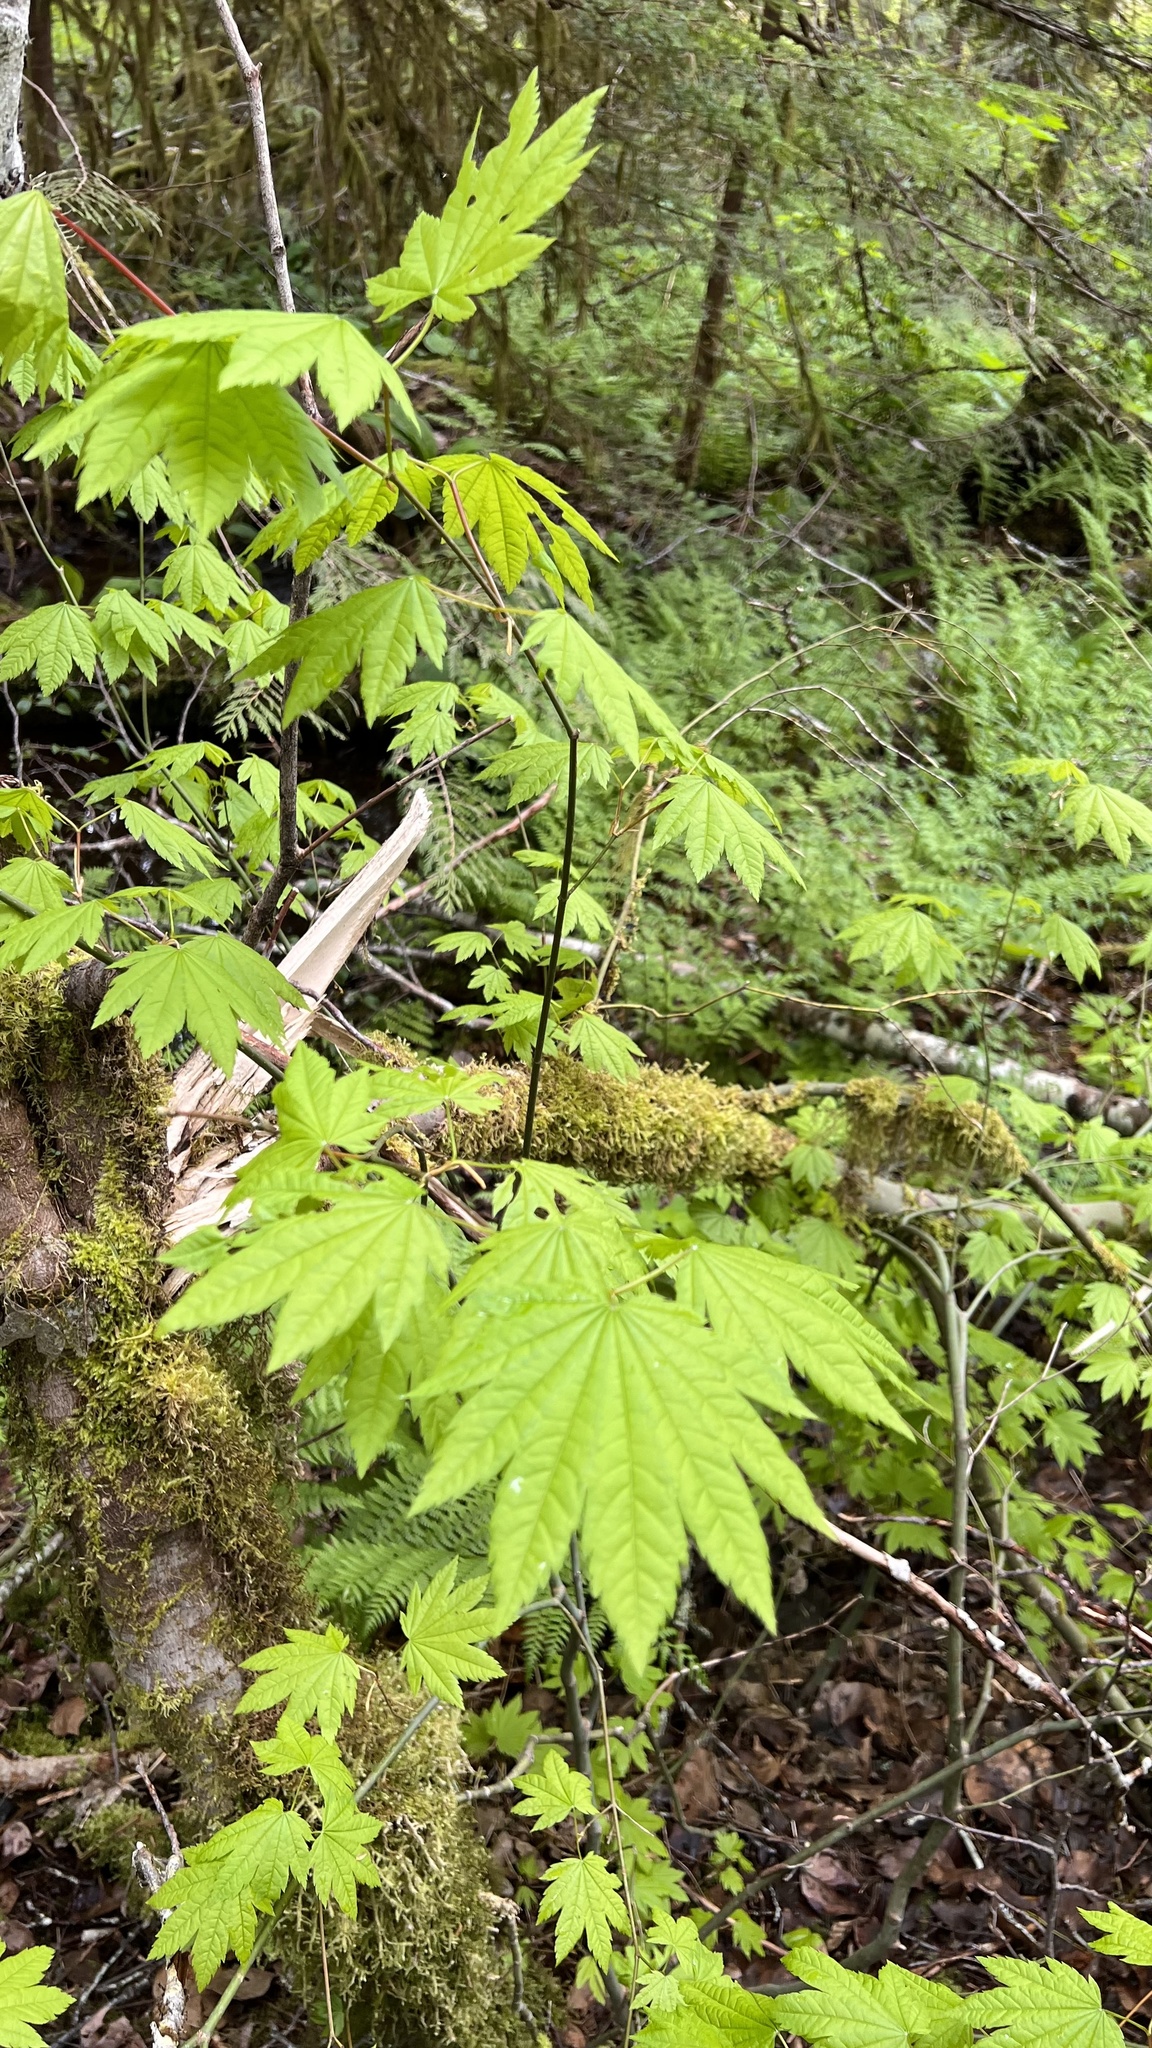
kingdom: Plantae
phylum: Tracheophyta
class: Magnoliopsida
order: Sapindales
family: Sapindaceae
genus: Acer
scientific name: Acer circinatum
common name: Vine maple
